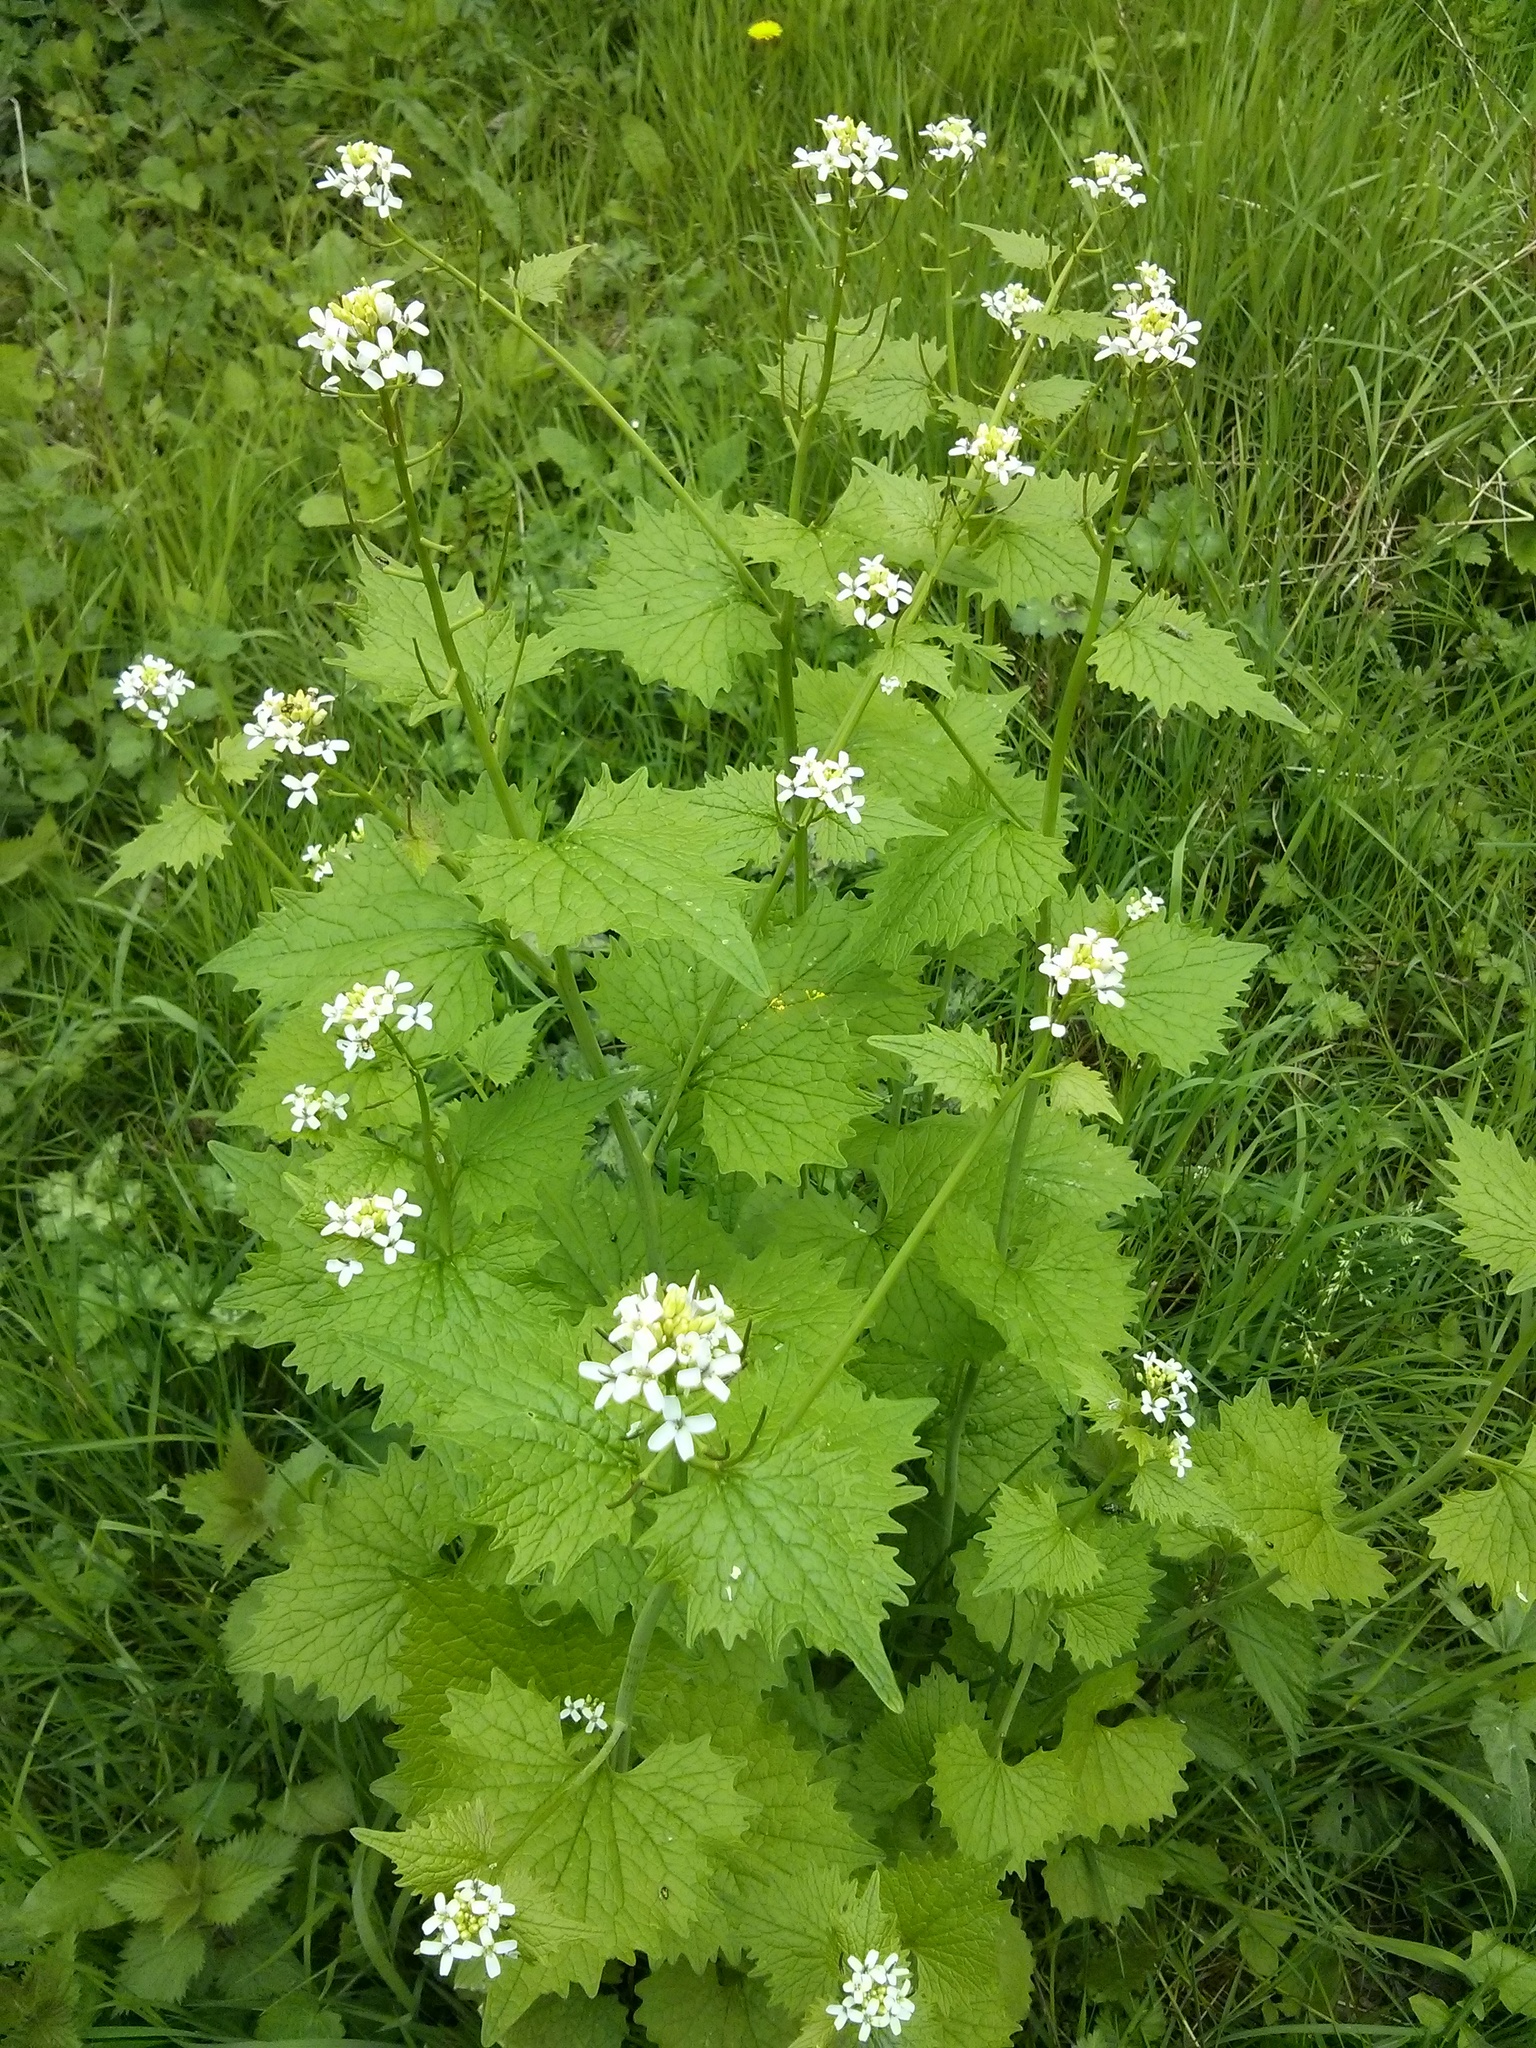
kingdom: Plantae
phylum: Tracheophyta
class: Magnoliopsida
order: Brassicales
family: Brassicaceae
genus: Alliaria
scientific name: Alliaria petiolata
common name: Garlic mustard
